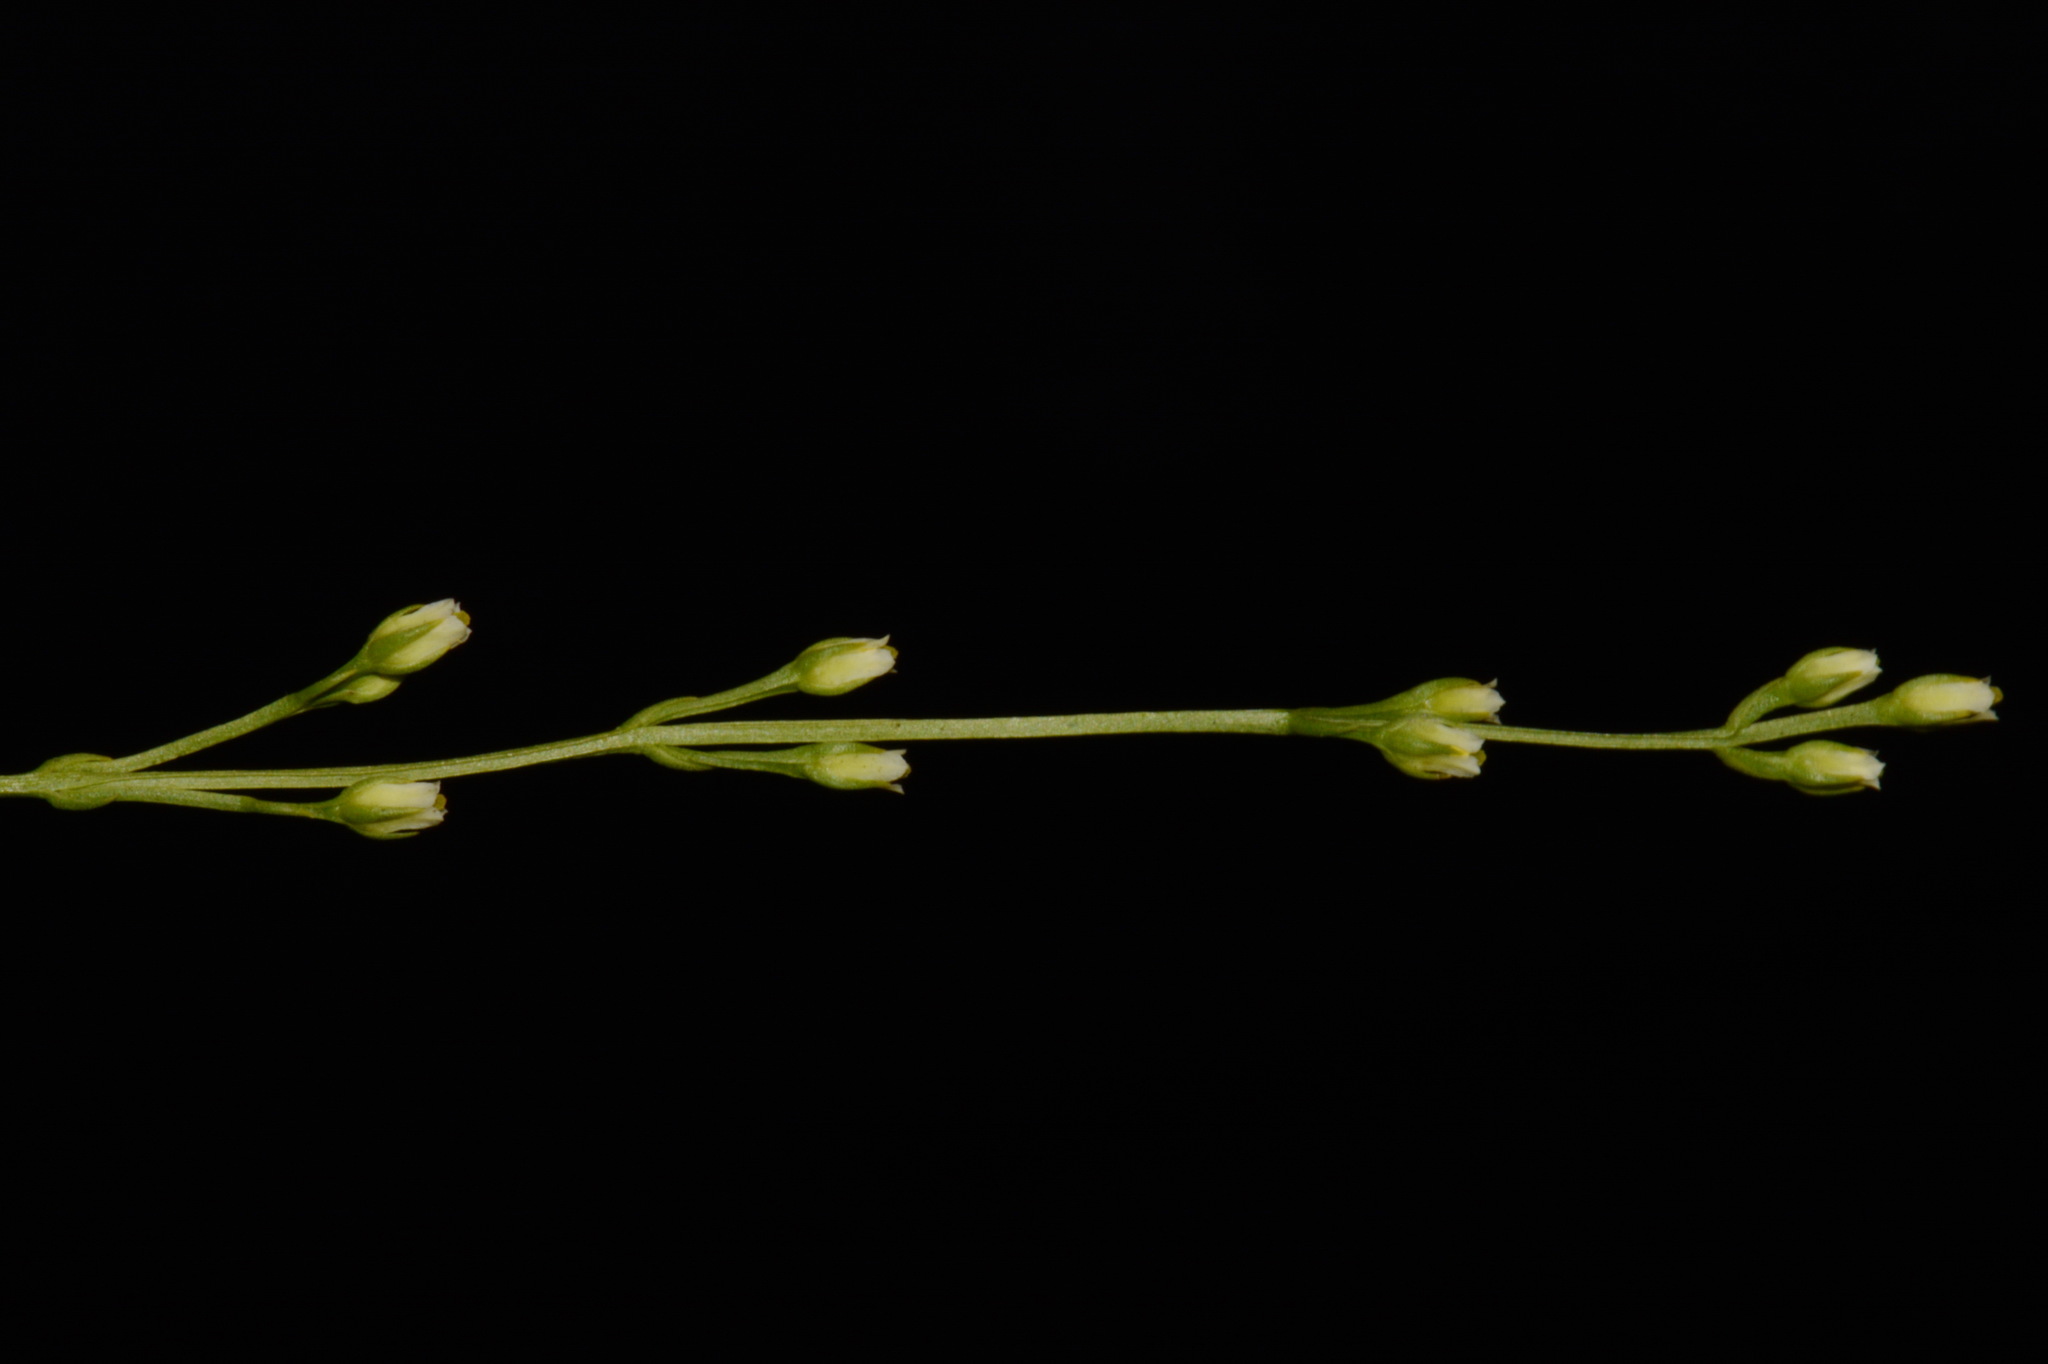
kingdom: Plantae
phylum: Tracheophyta
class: Magnoliopsida
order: Gentianales
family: Gentianaceae
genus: Bartonia
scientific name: Bartonia virginica
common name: Yellow bartonia
